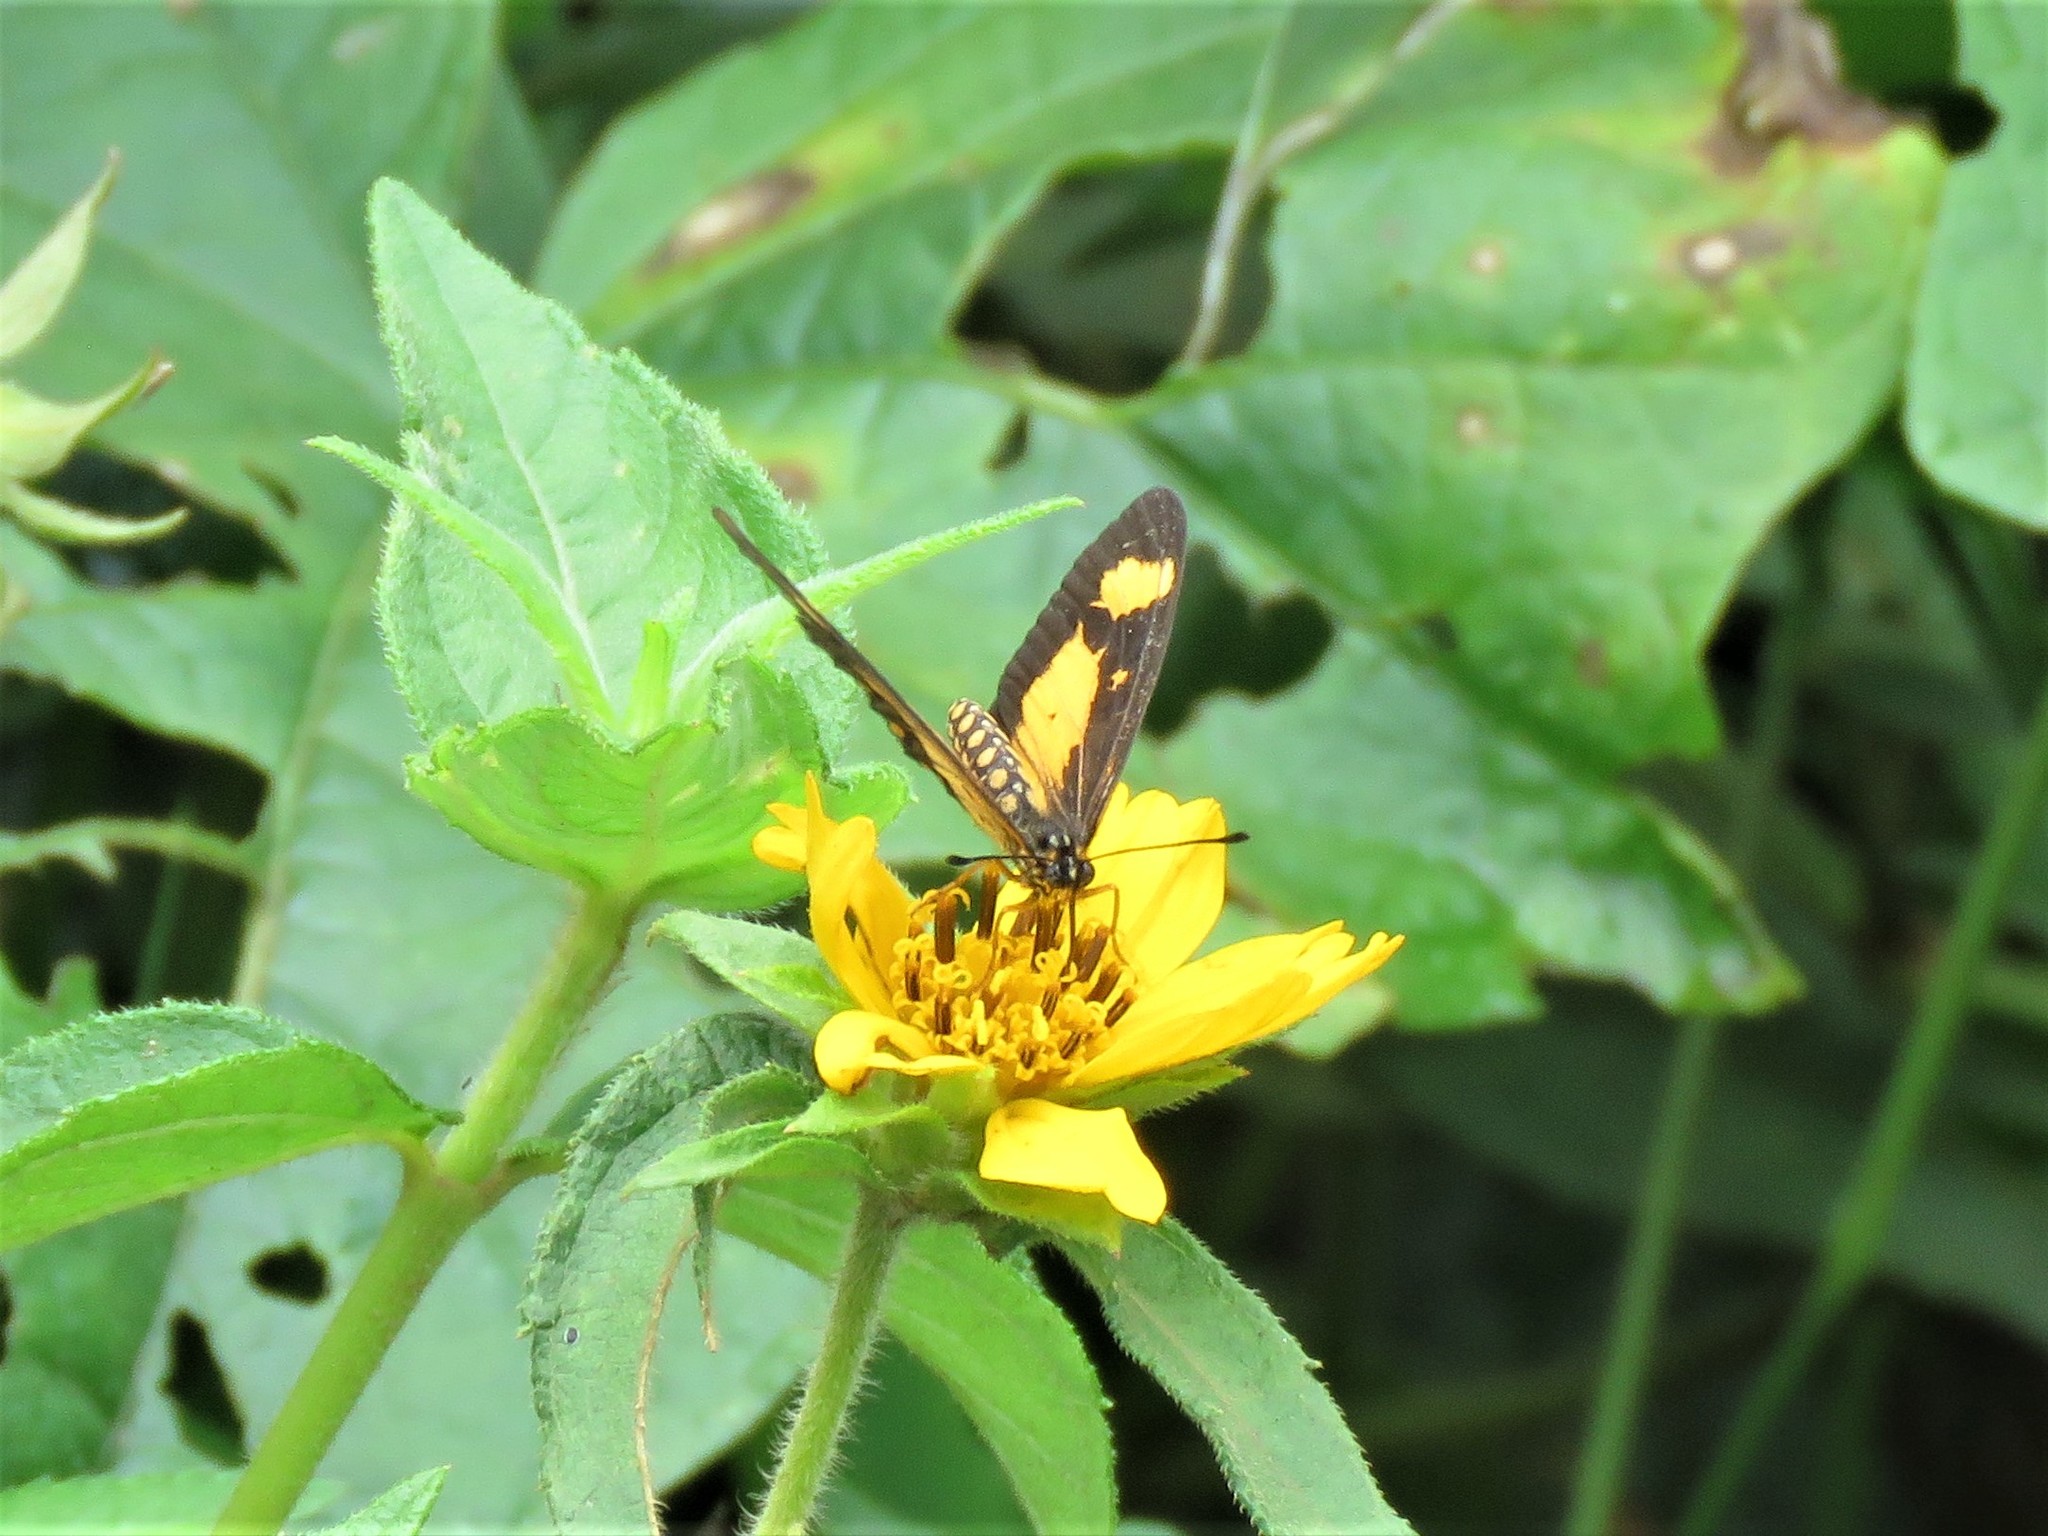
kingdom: Animalia
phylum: Arthropoda
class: Insecta
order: Lepidoptera
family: Nymphalidae
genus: Acraea
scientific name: Acraea Telchinia acerata
